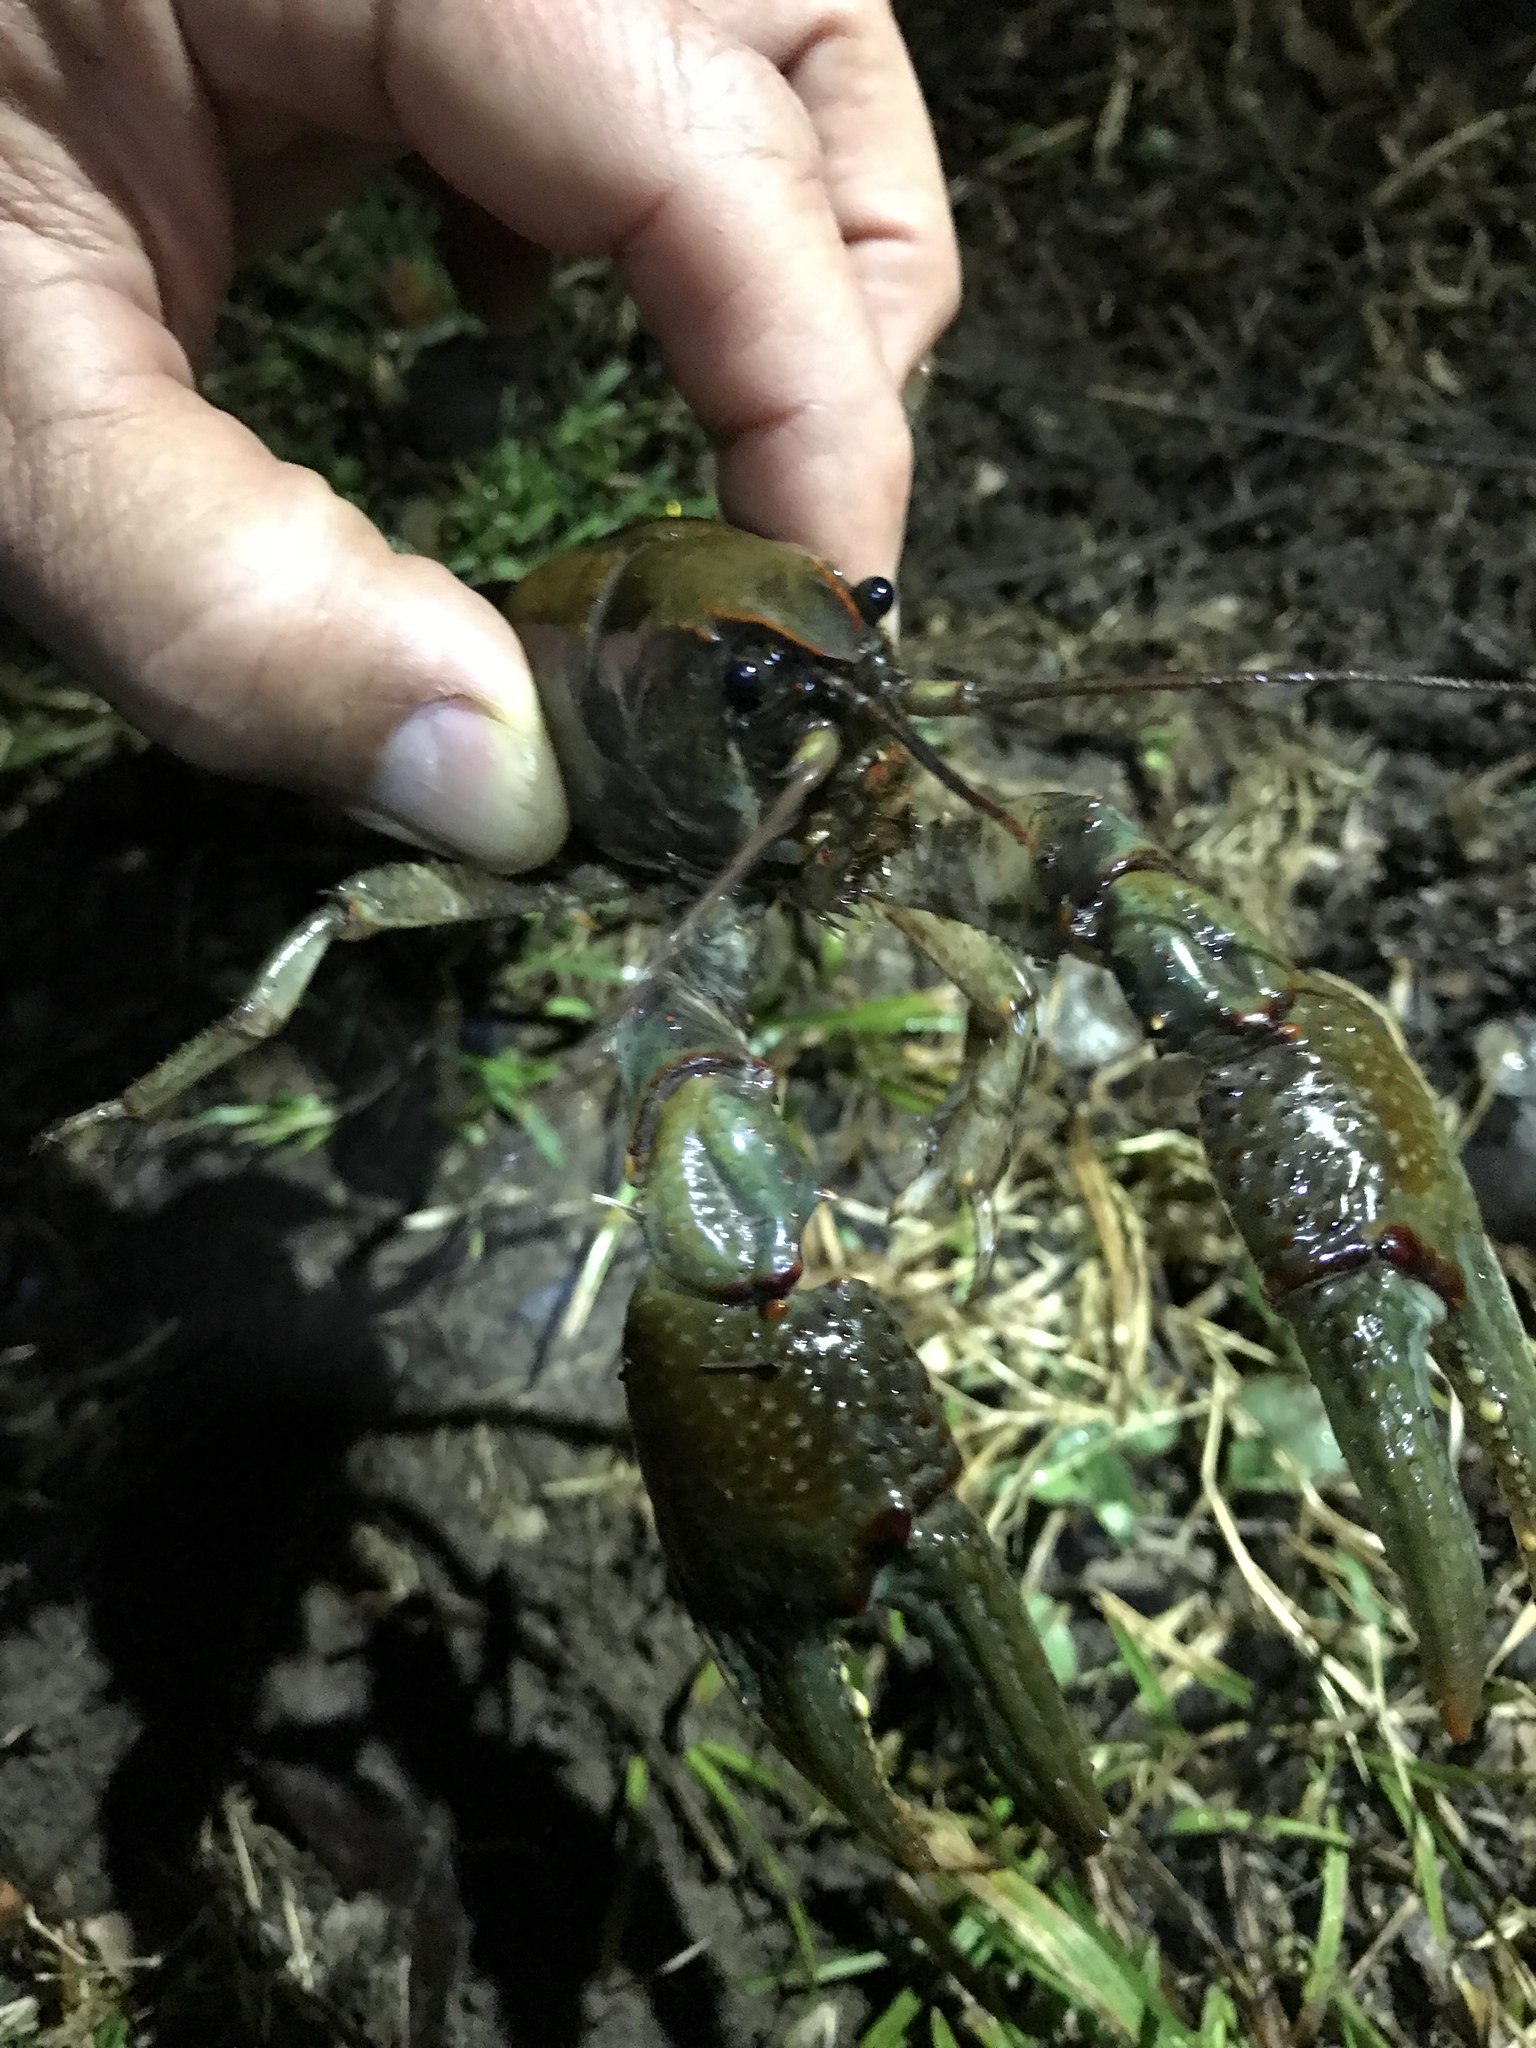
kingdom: Animalia
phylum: Arthropoda
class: Malacostraca
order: Decapoda
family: Cambaridae
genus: Lacunicambarus
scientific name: Lacunicambarus polychromatus
